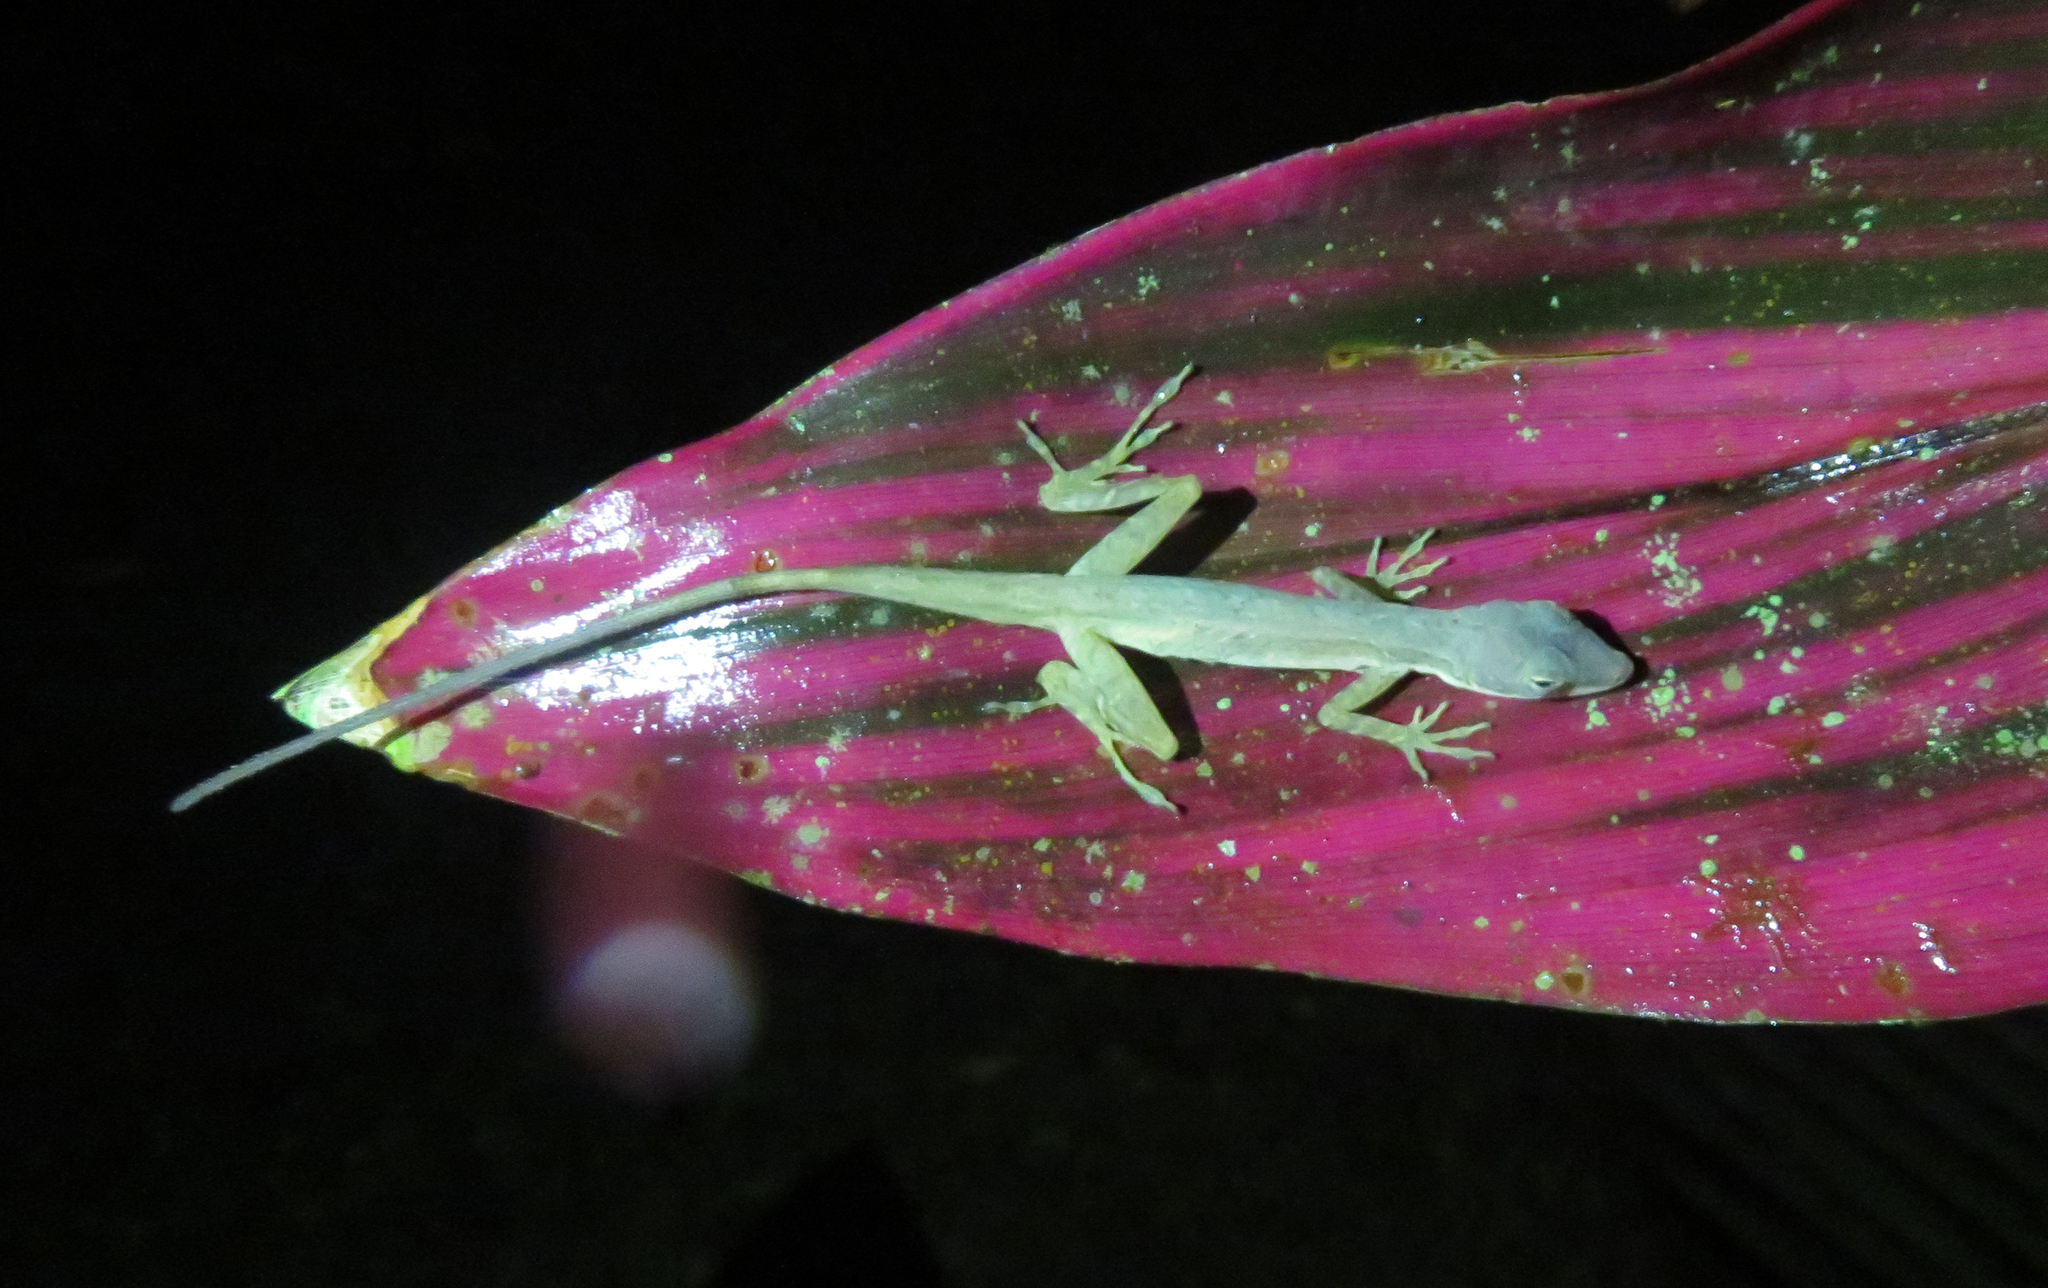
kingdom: Animalia
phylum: Chordata
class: Squamata
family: Dactyloidae
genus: Anolis
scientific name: Anolis limifrons
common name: Border anole
